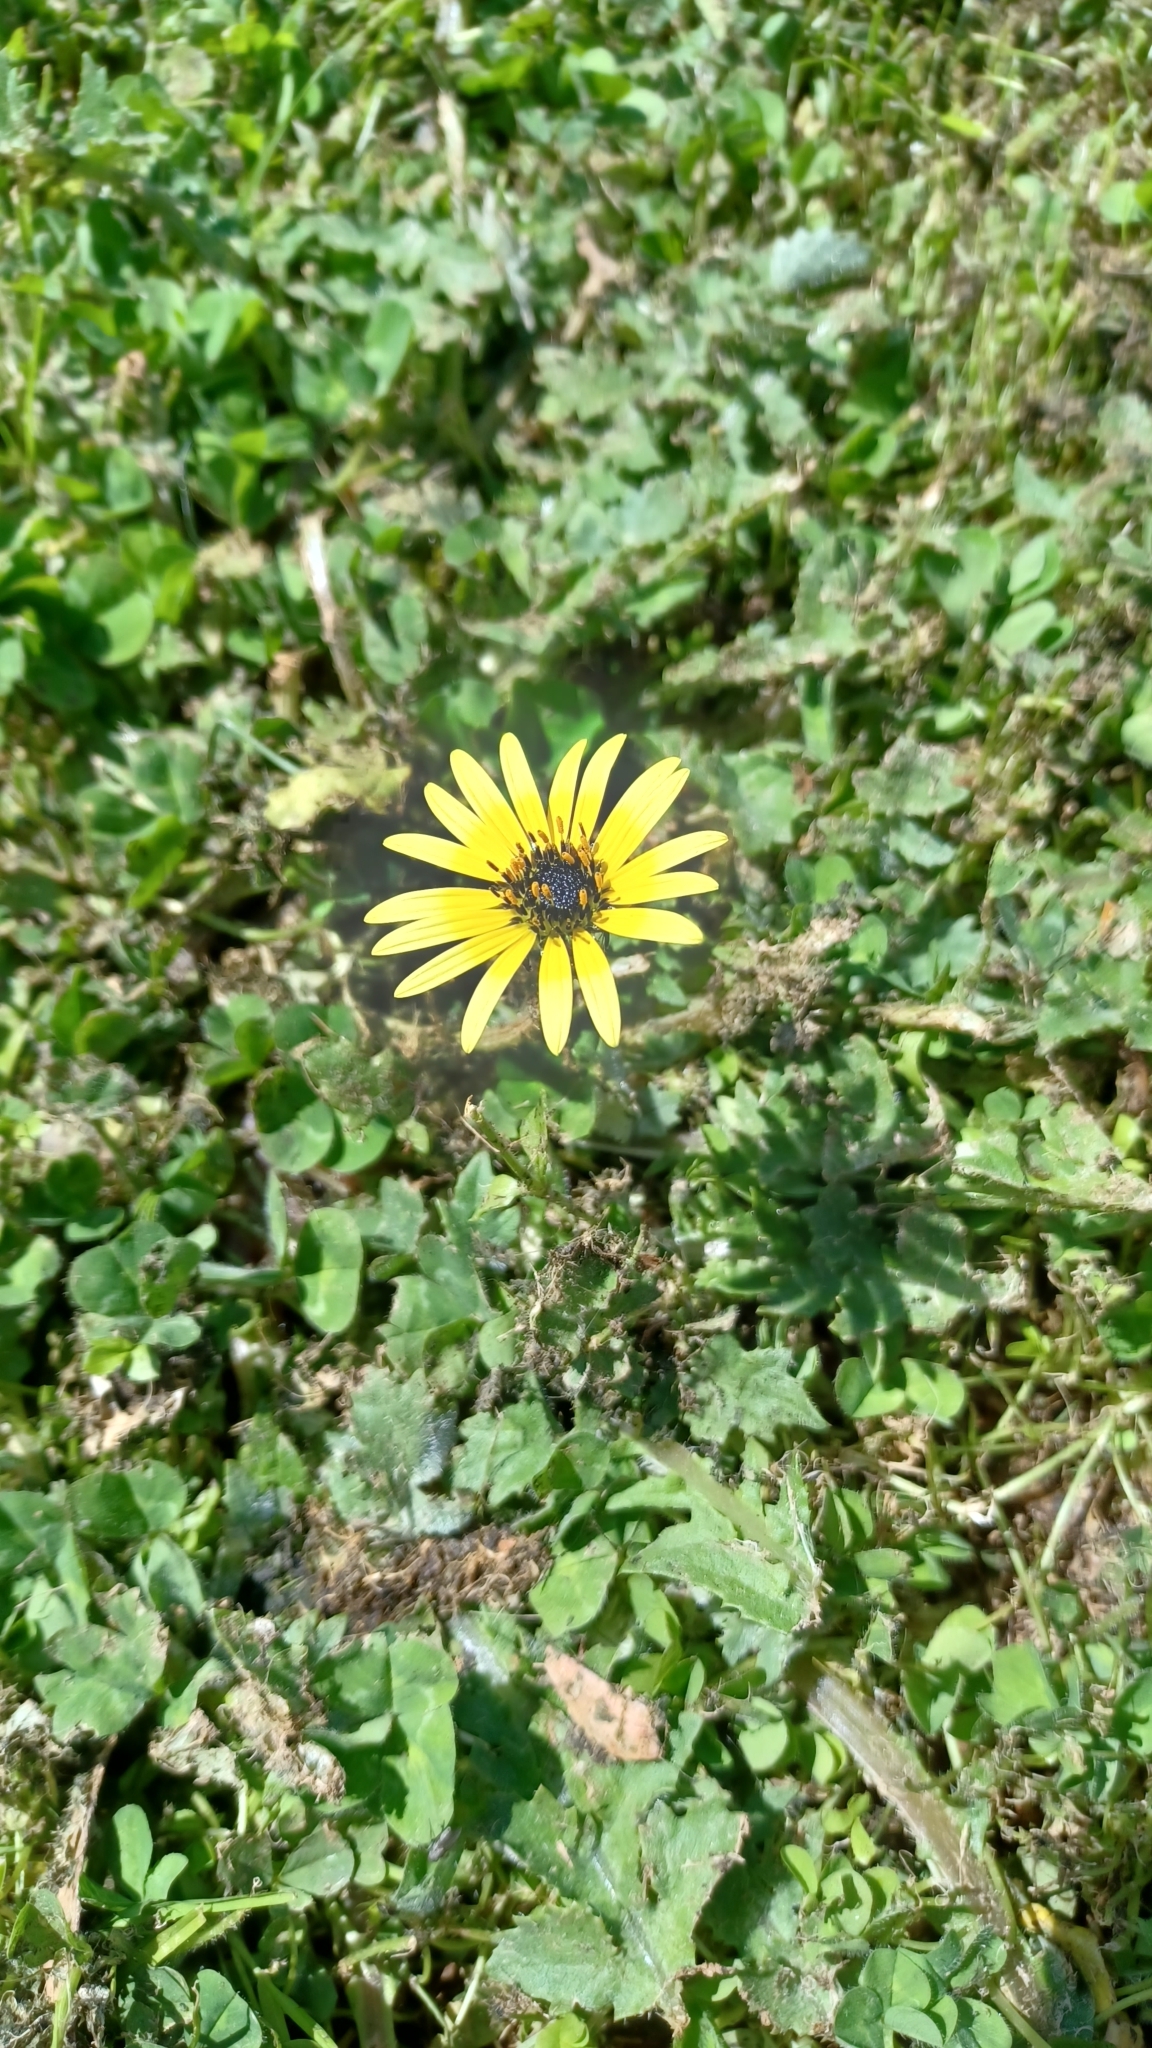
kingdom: Plantae
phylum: Tracheophyta
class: Magnoliopsida
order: Asterales
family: Asteraceae
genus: Arctotheca
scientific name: Arctotheca calendula
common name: Capeweed
